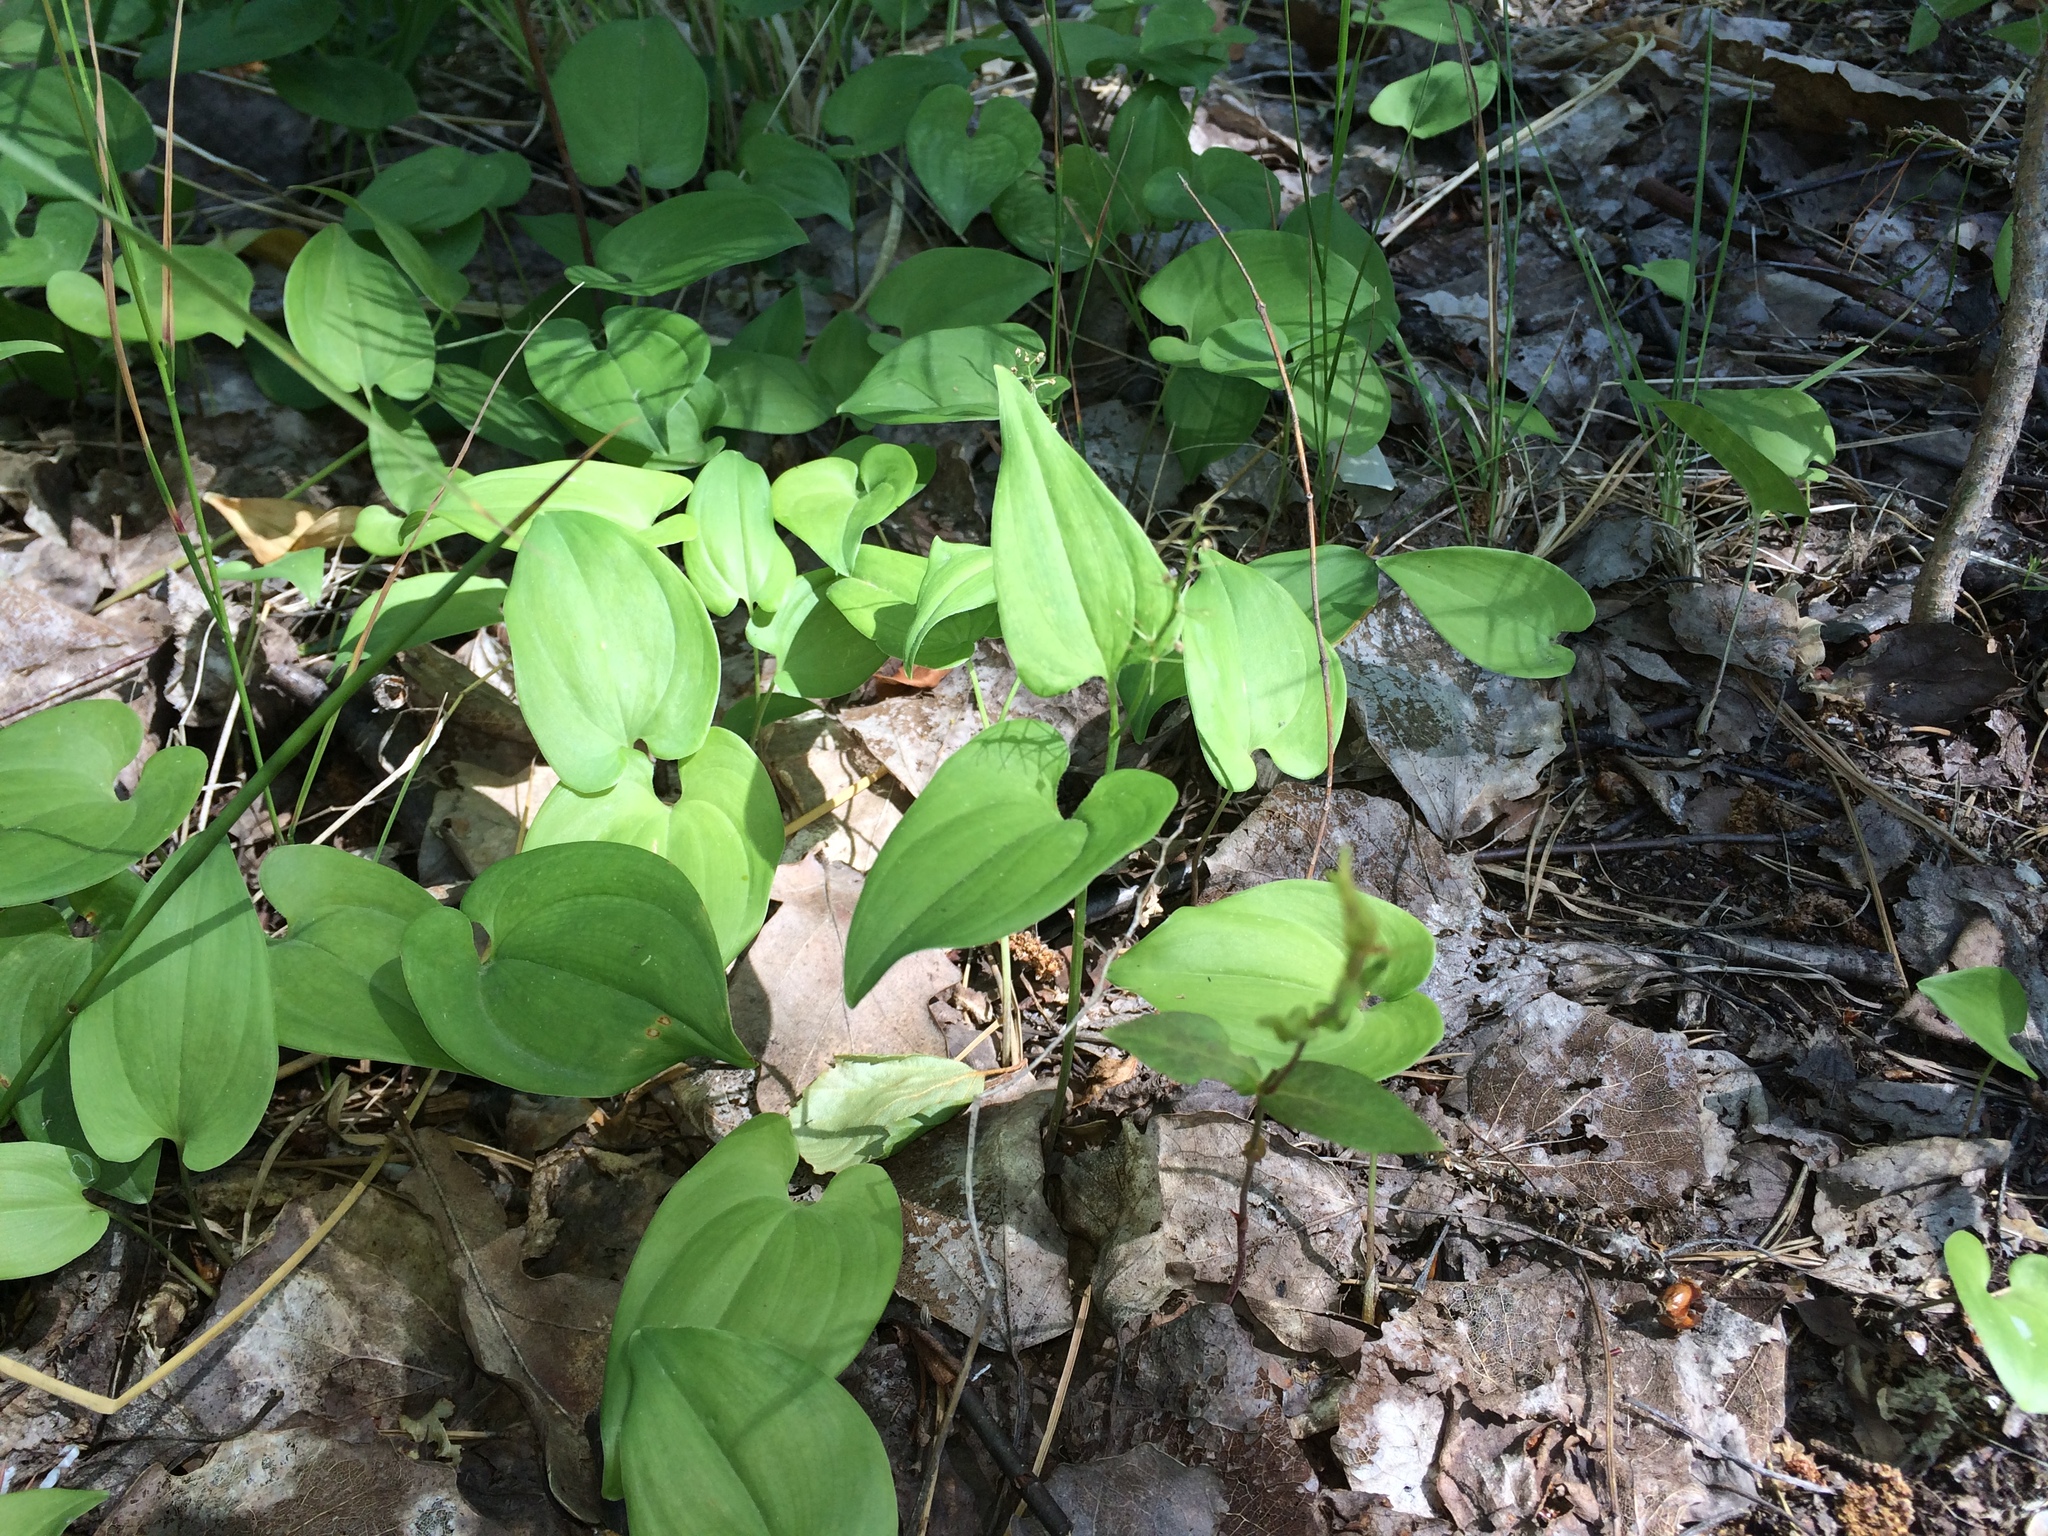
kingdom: Plantae
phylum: Tracheophyta
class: Liliopsida
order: Asparagales
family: Asparagaceae
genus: Maianthemum
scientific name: Maianthemum bifolium
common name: May lily
